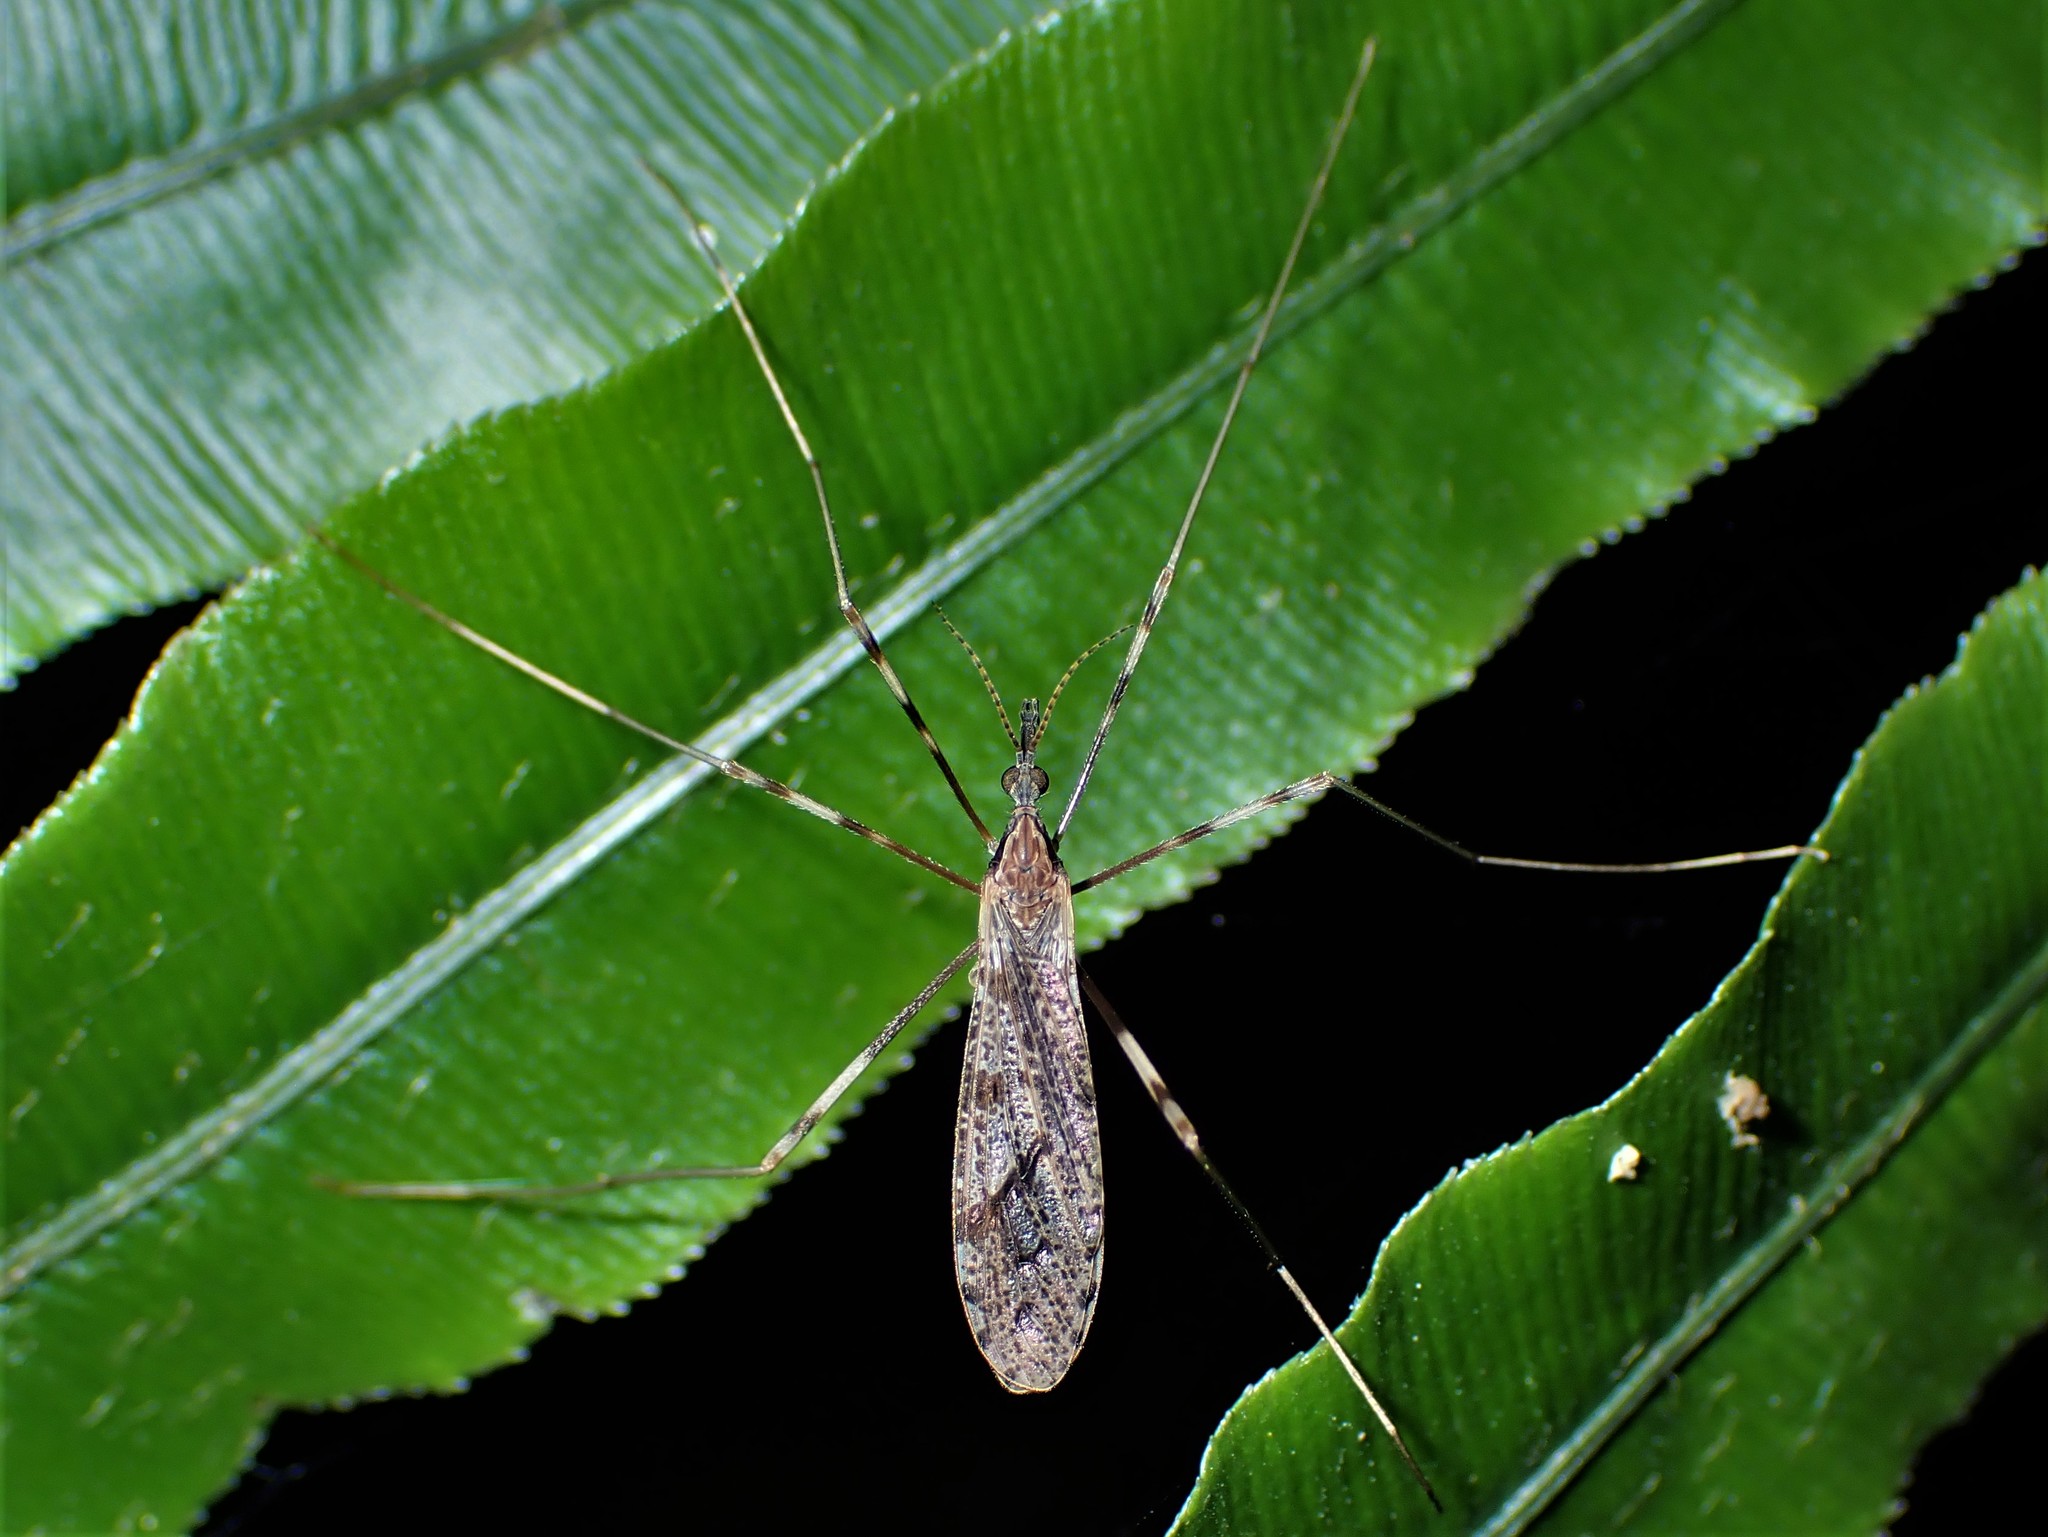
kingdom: Animalia
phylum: Arthropoda
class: Insecta
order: Diptera
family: Limoniidae
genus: Rhamphophila
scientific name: Rhamphophila sinistra
